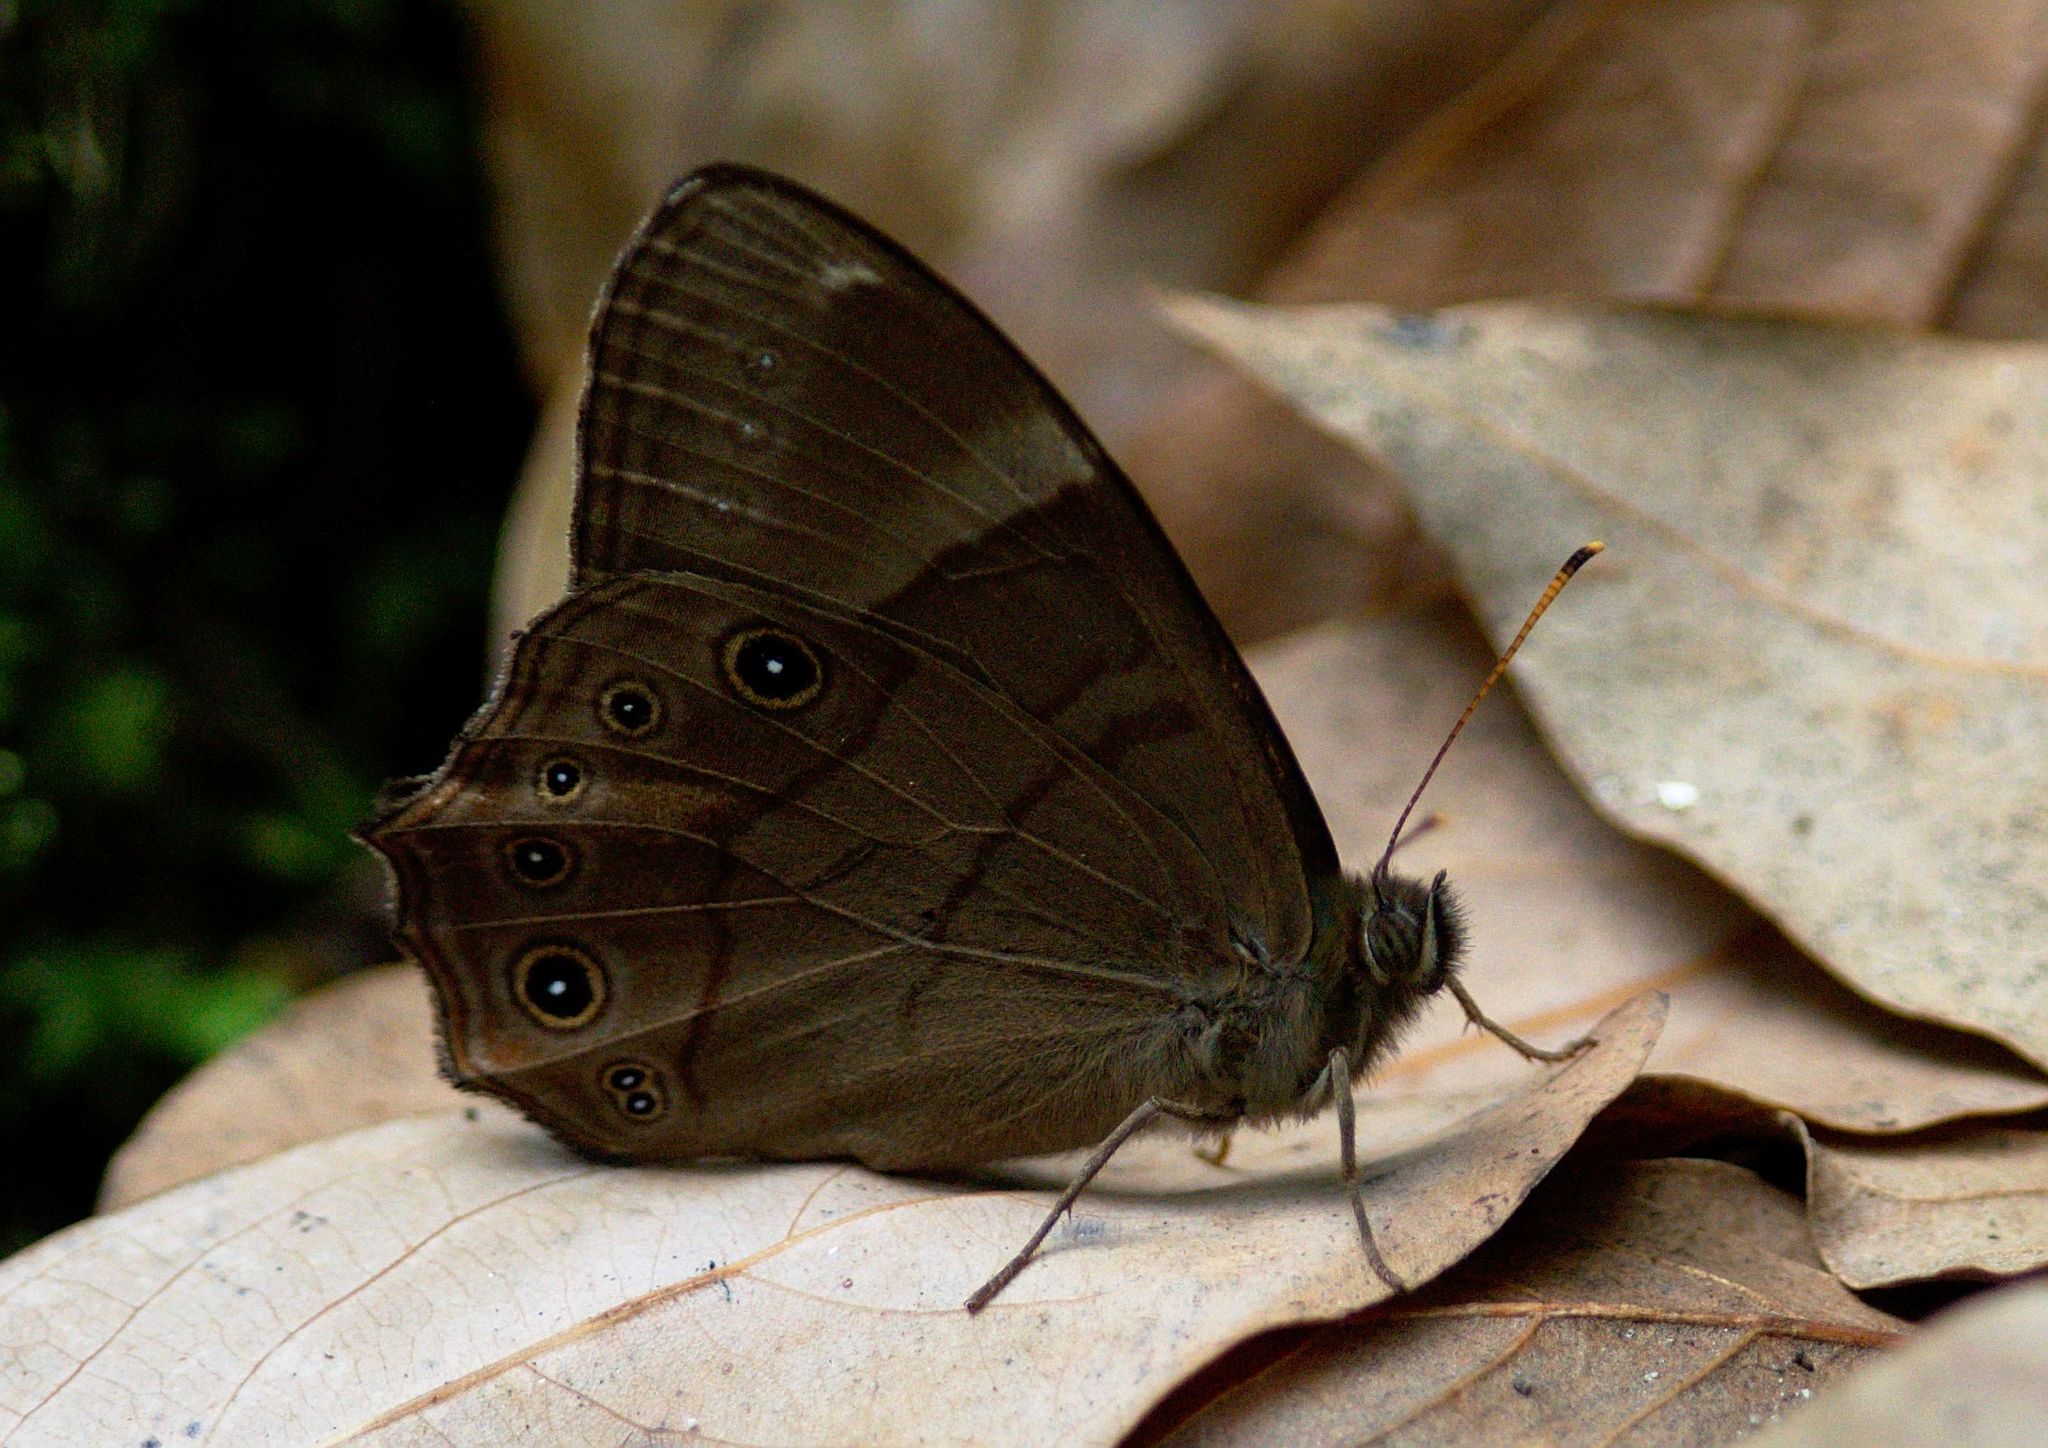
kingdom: Animalia
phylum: Arthropoda
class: Insecta
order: Lepidoptera
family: Nymphalidae
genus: Lethe
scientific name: Lethe
